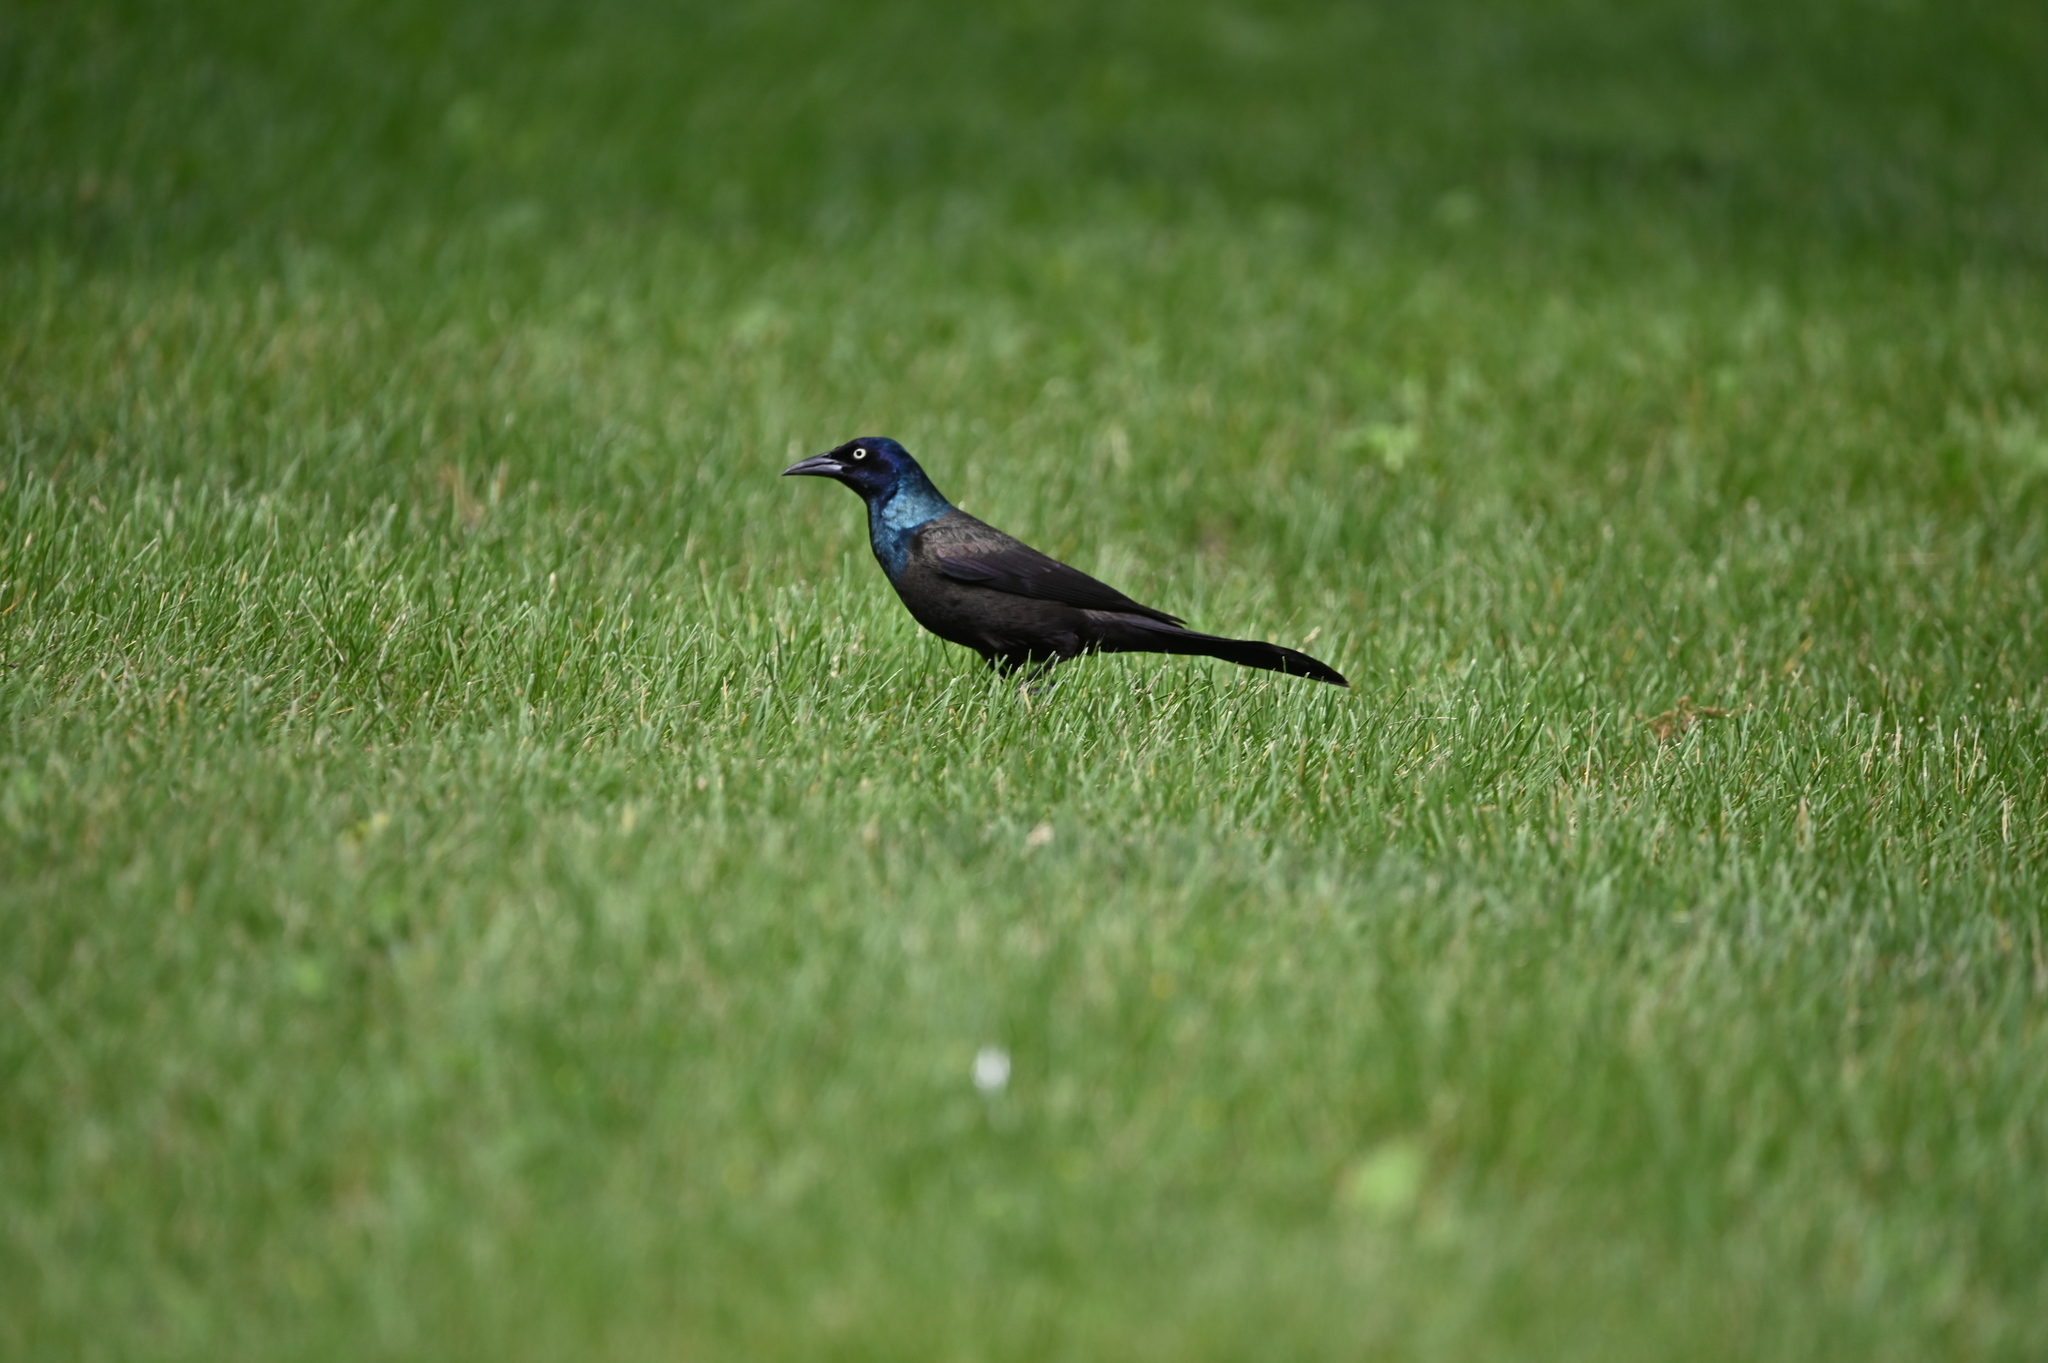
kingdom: Animalia
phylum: Chordata
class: Aves
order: Passeriformes
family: Icteridae
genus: Quiscalus
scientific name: Quiscalus quiscula
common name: Common grackle
